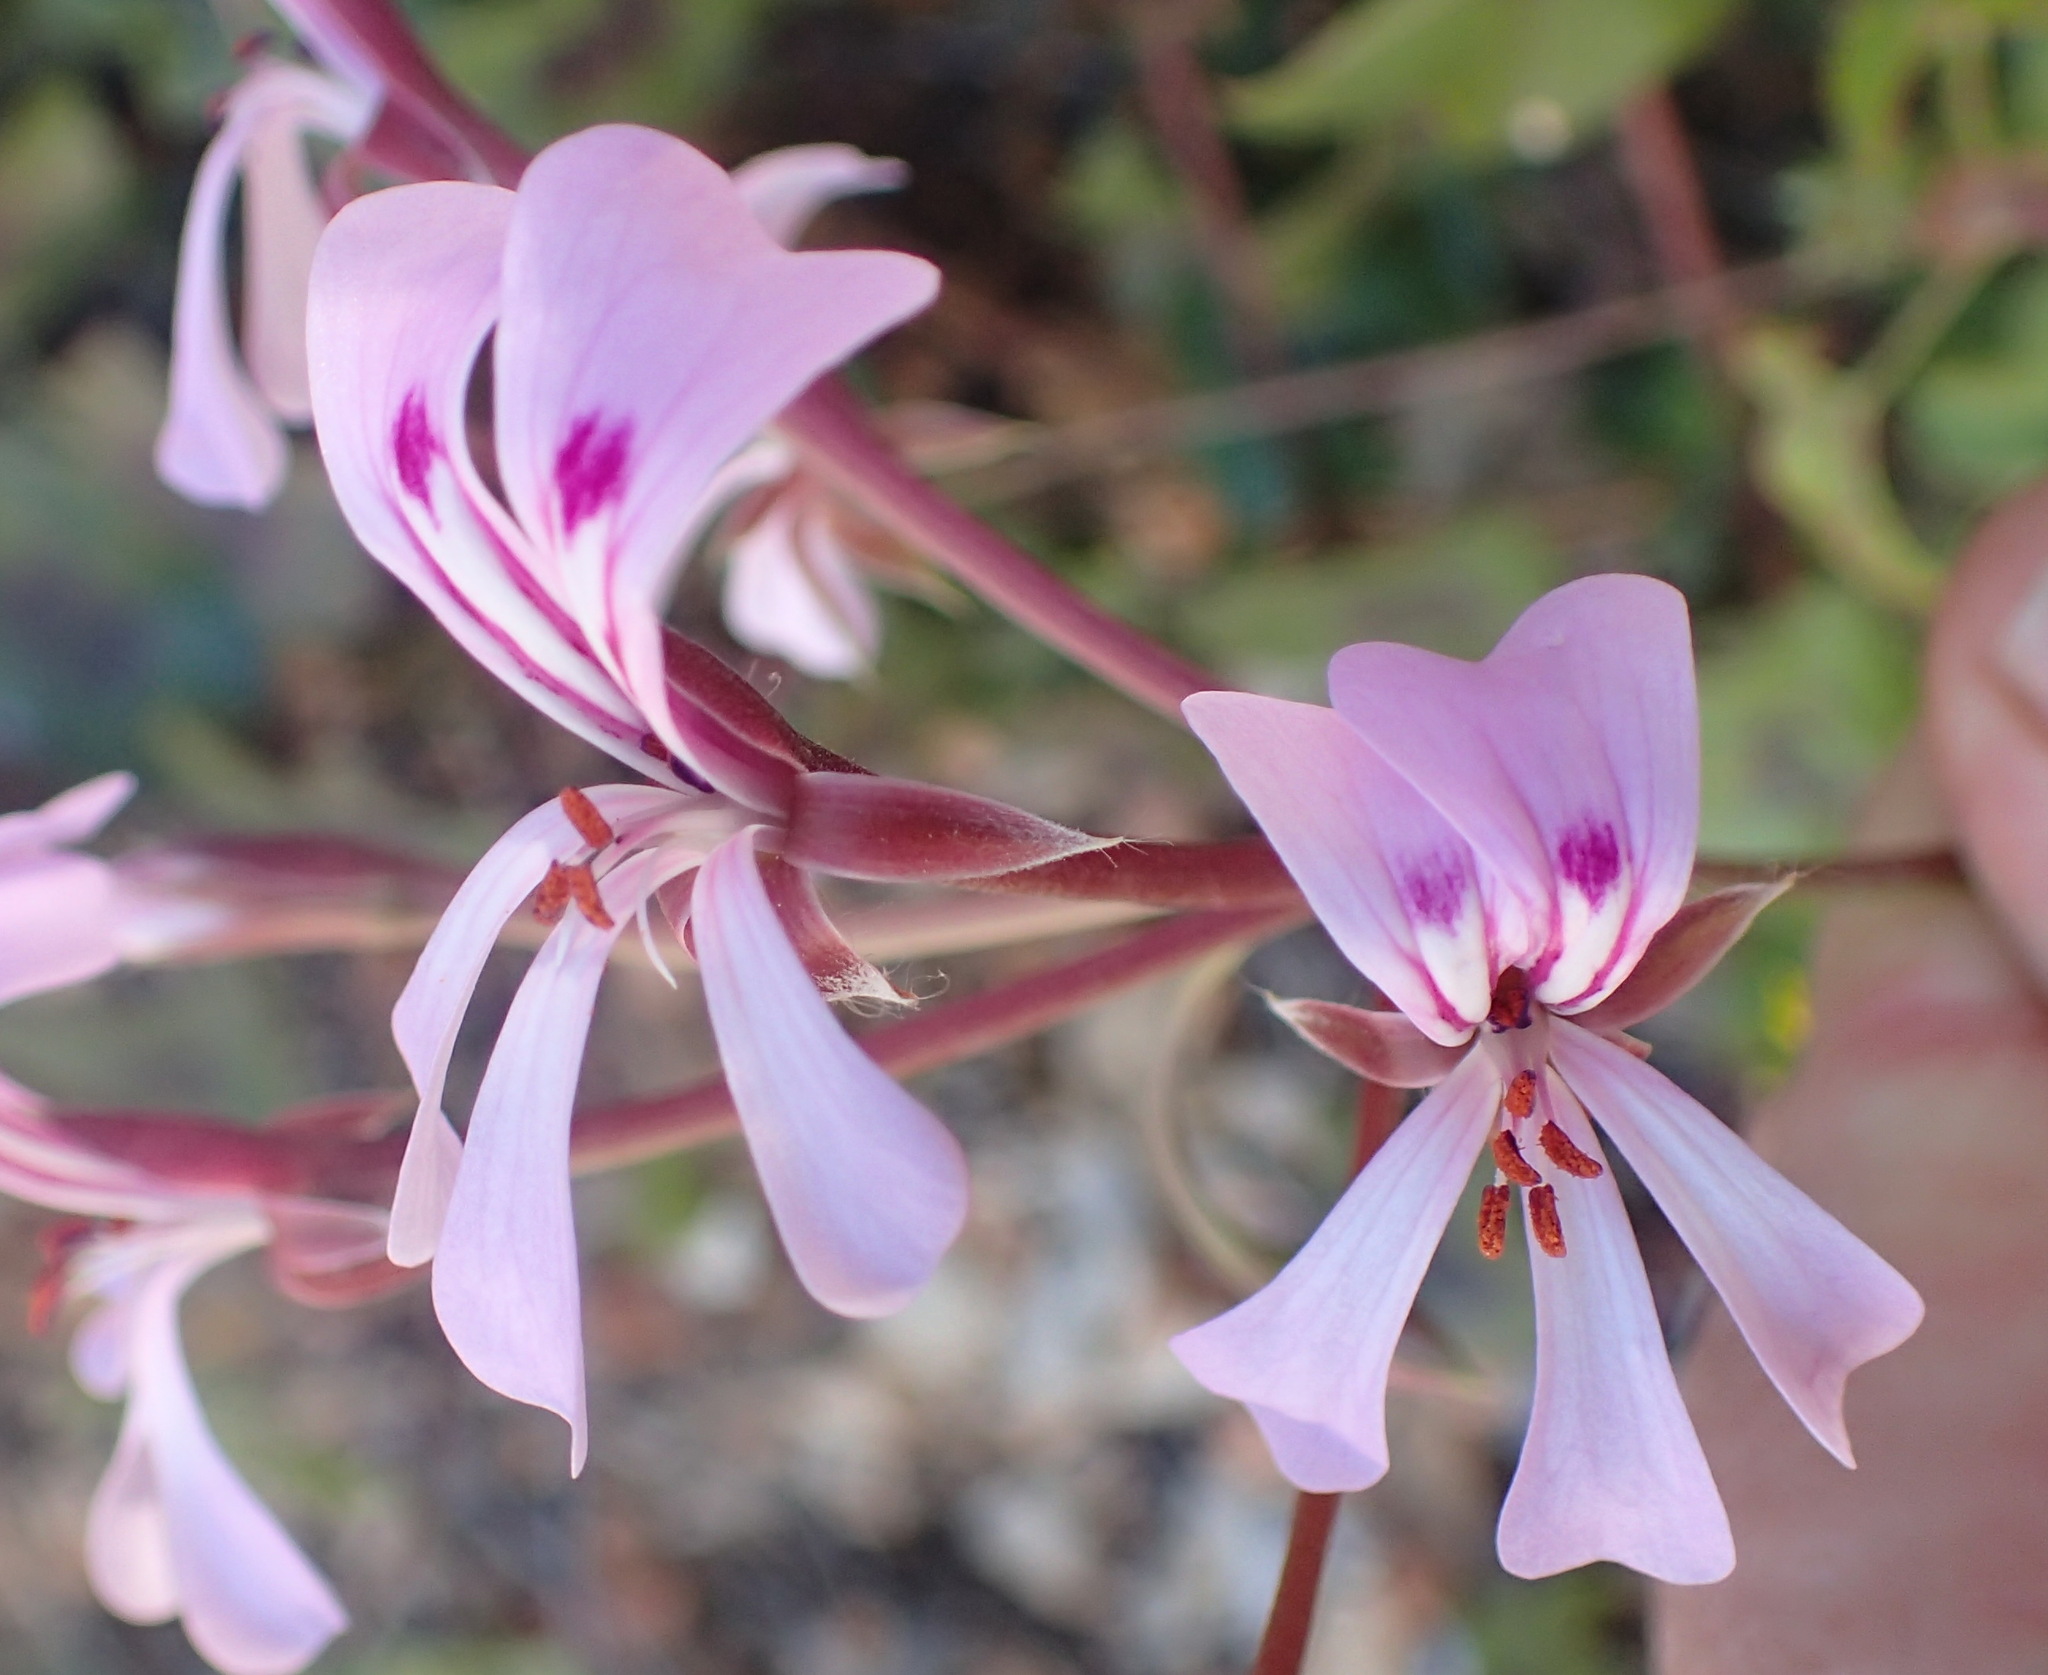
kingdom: Plantae
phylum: Tracheophyta
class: Magnoliopsida
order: Geraniales
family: Geraniaceae
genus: Pelargonium
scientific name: Pelargonium peltatum
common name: Ivyleaf geranium
